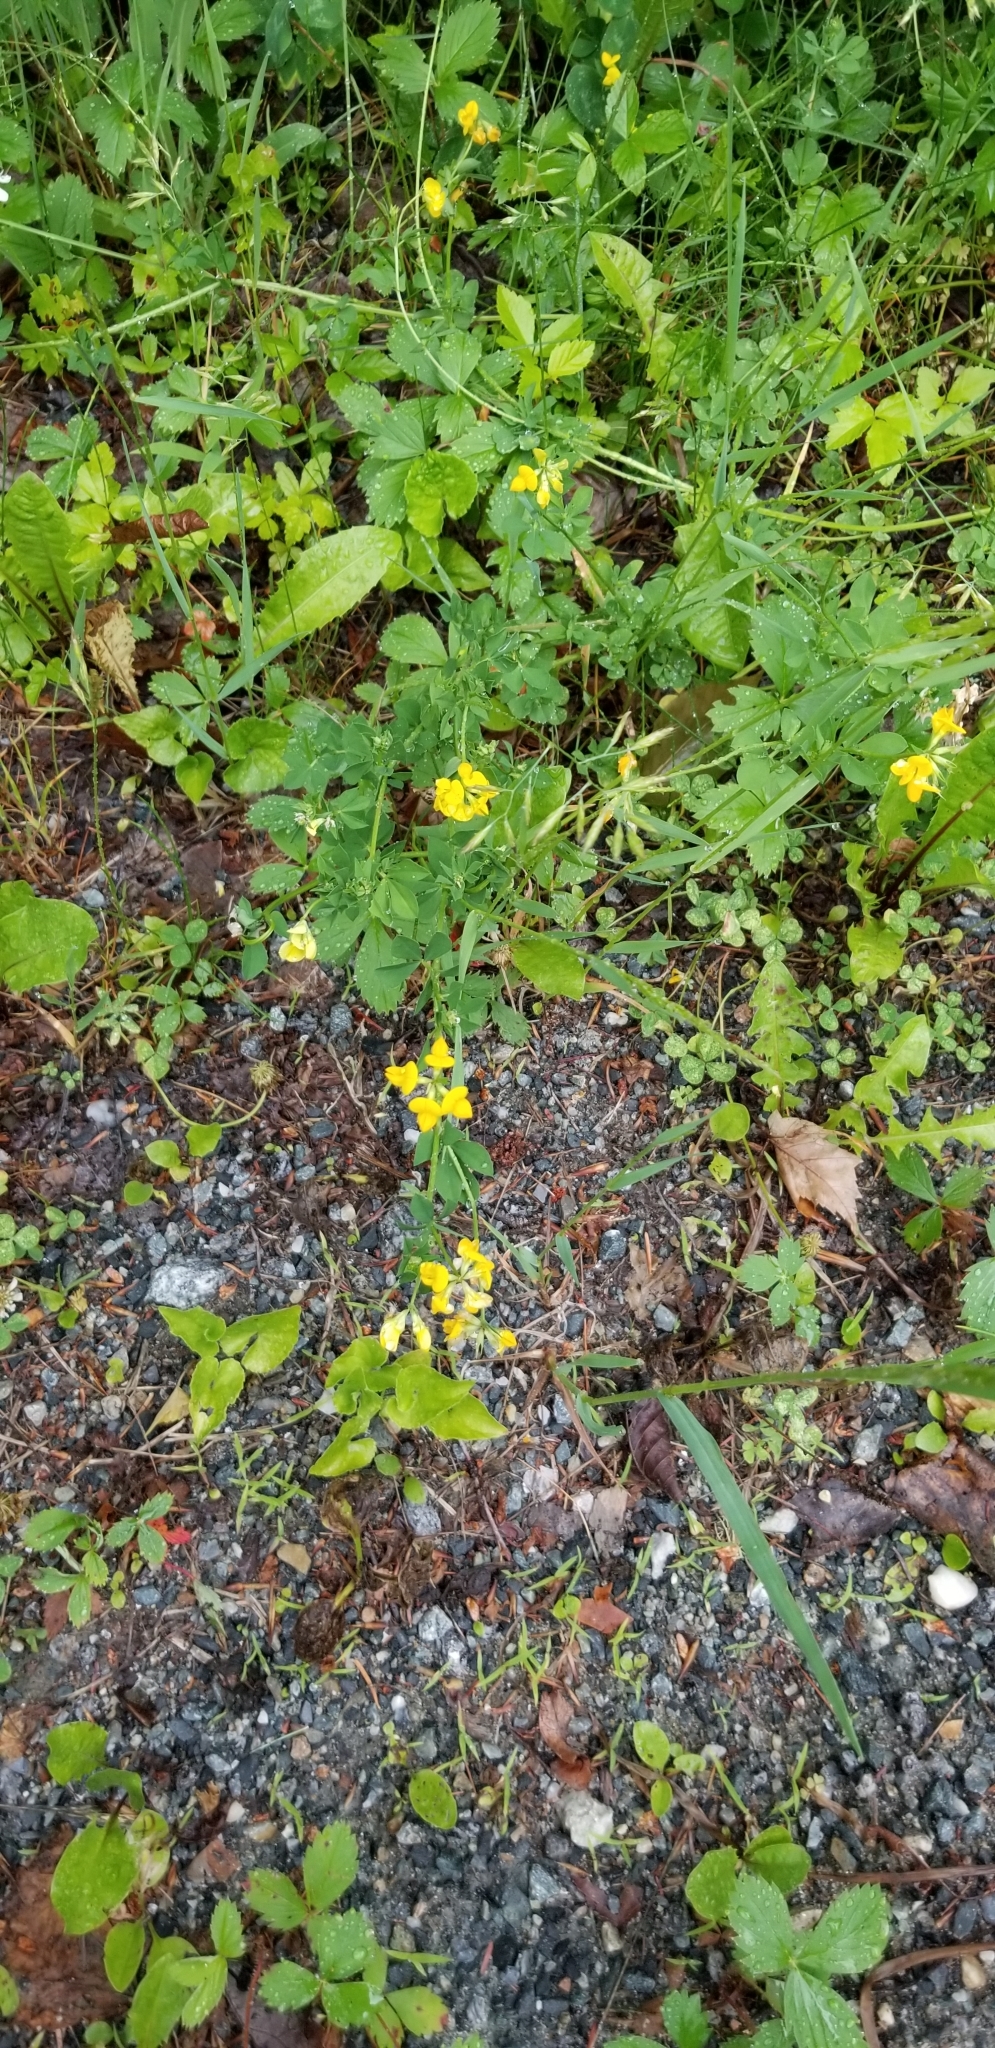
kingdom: Plantae
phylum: Tracheophyta
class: Magnoliopsida
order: Fabales
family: Fabaceae
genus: Lotus
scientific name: Lotus corniculatus
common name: Common bird's-foot-trefoil
